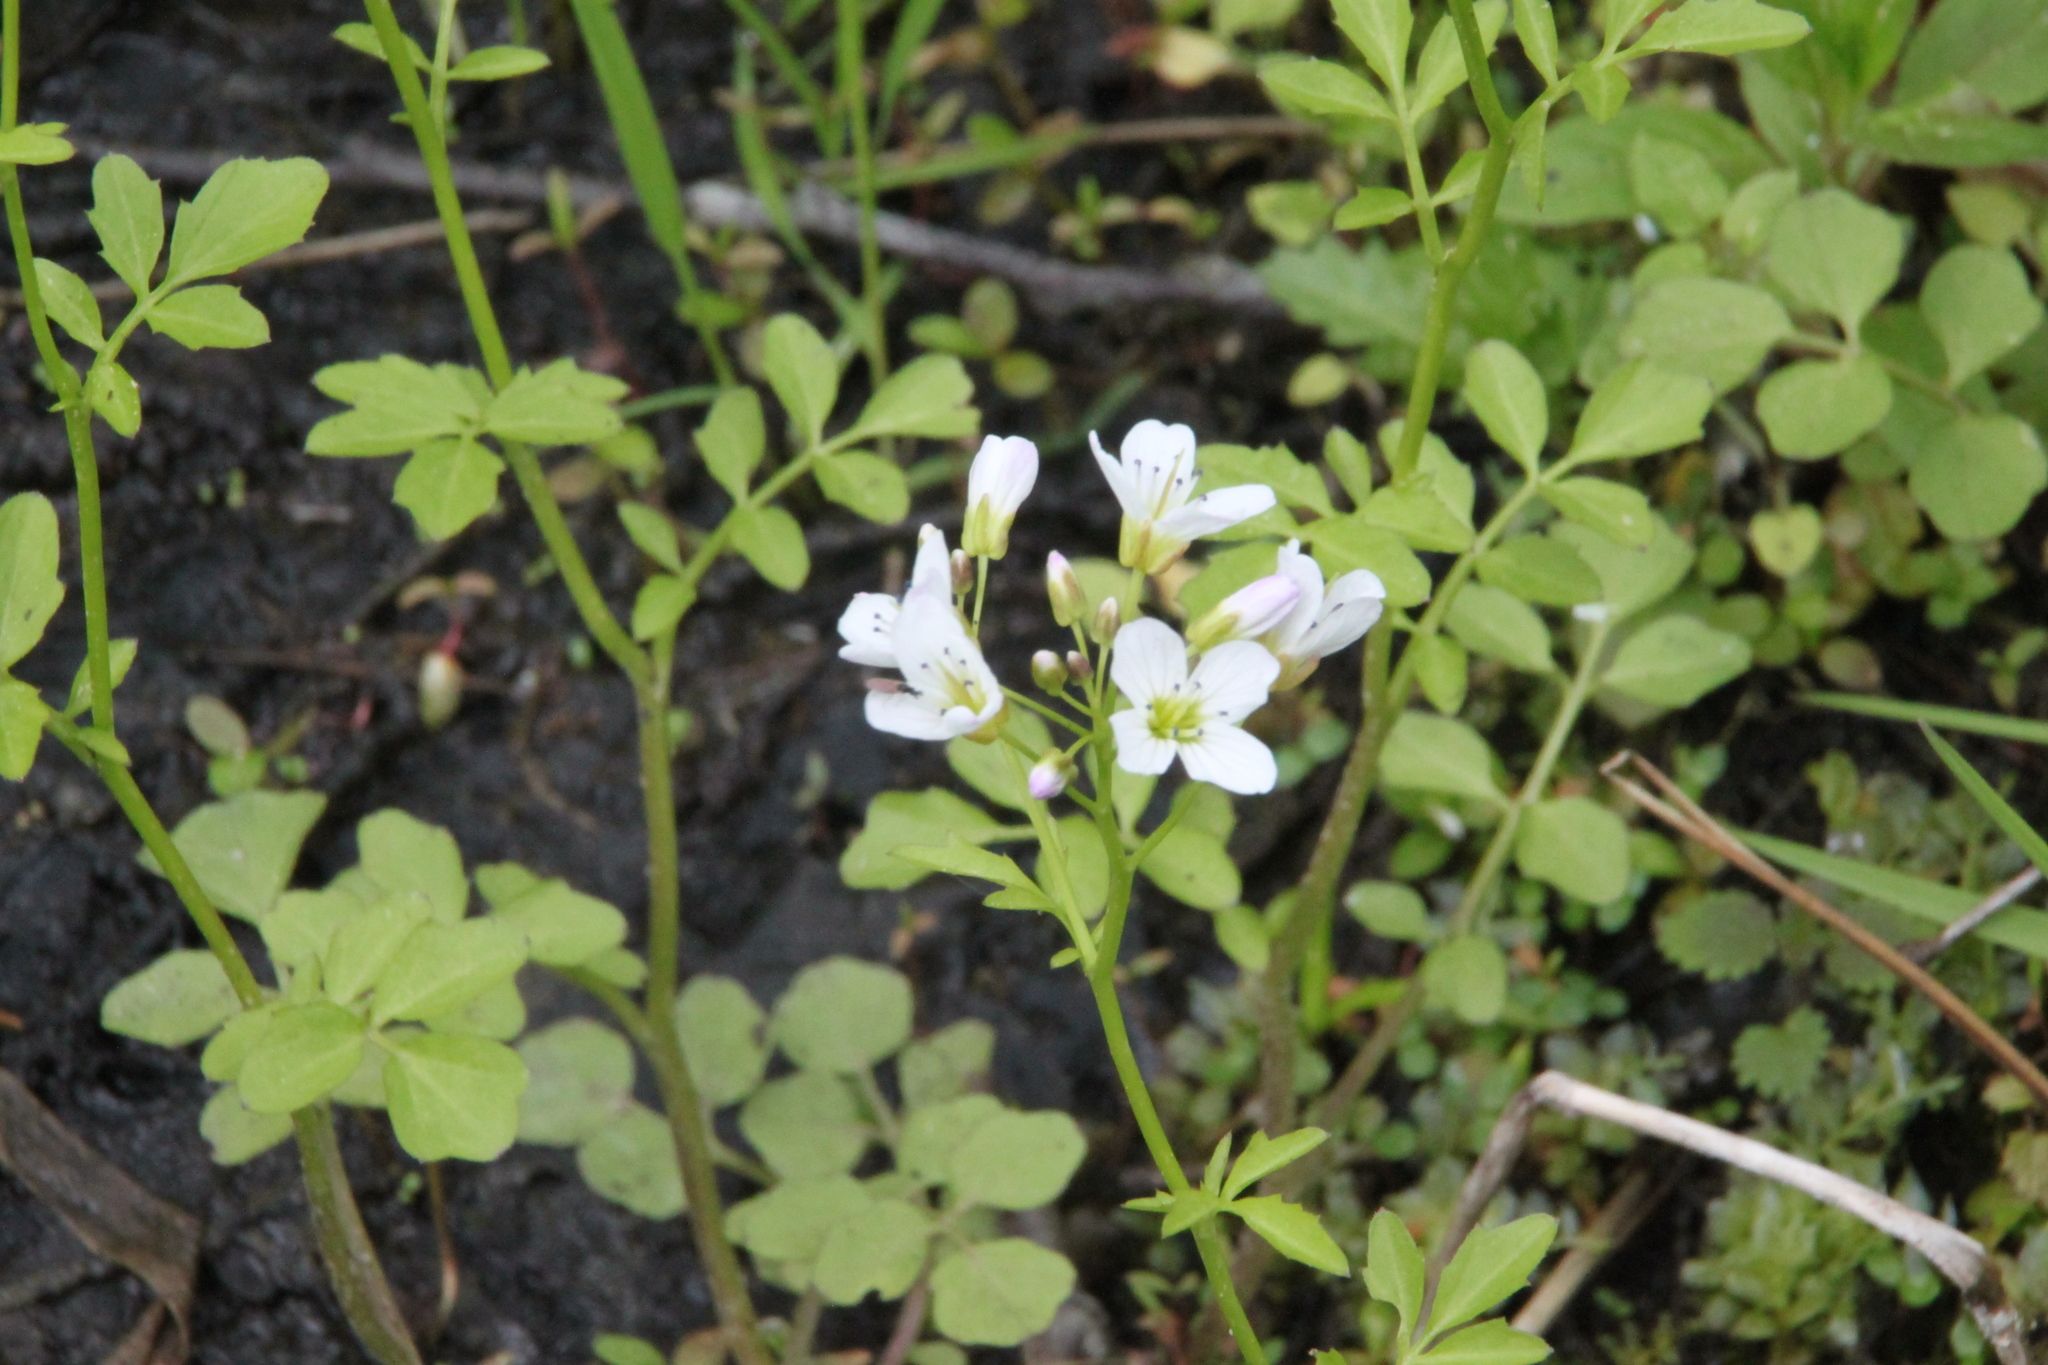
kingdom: Plantae
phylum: Tracheophyta
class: Magnoliopsida
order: Brassicales
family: Brassicaceae
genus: Cardamine
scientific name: Cardamine amara
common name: Large bitter-cress
